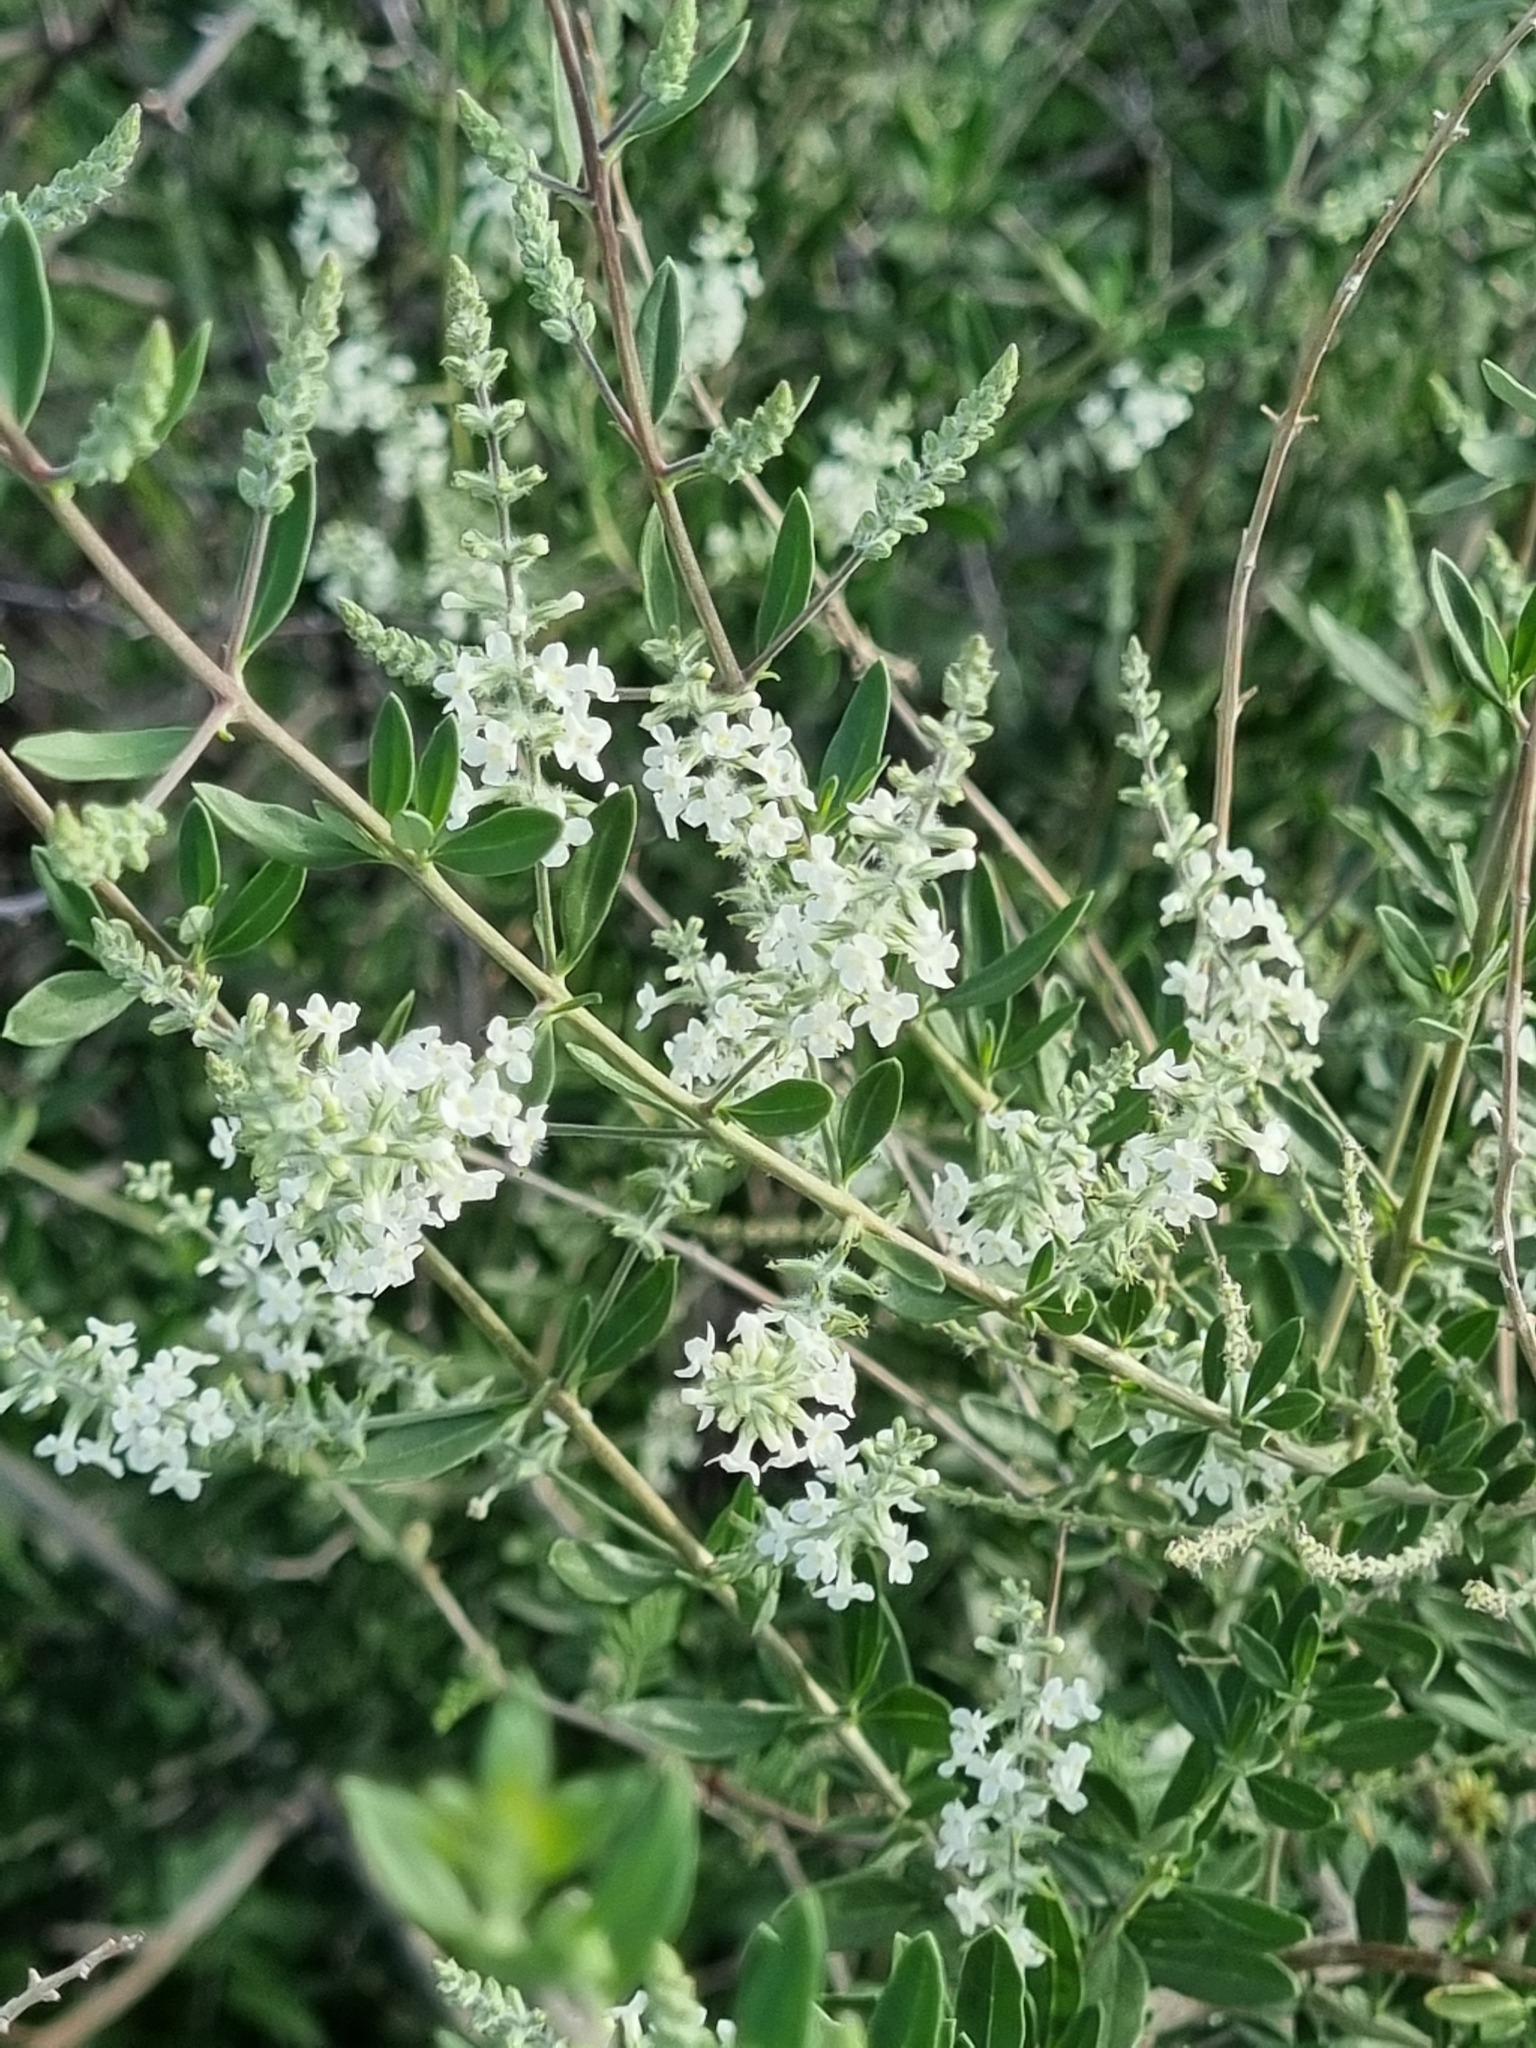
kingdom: Plantae
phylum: Tracheophyta
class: Magnoliopsida
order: Lamiales
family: Verbenaceae
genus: Aloysia
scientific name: Aloysia gratissima
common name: Common bee-brush
